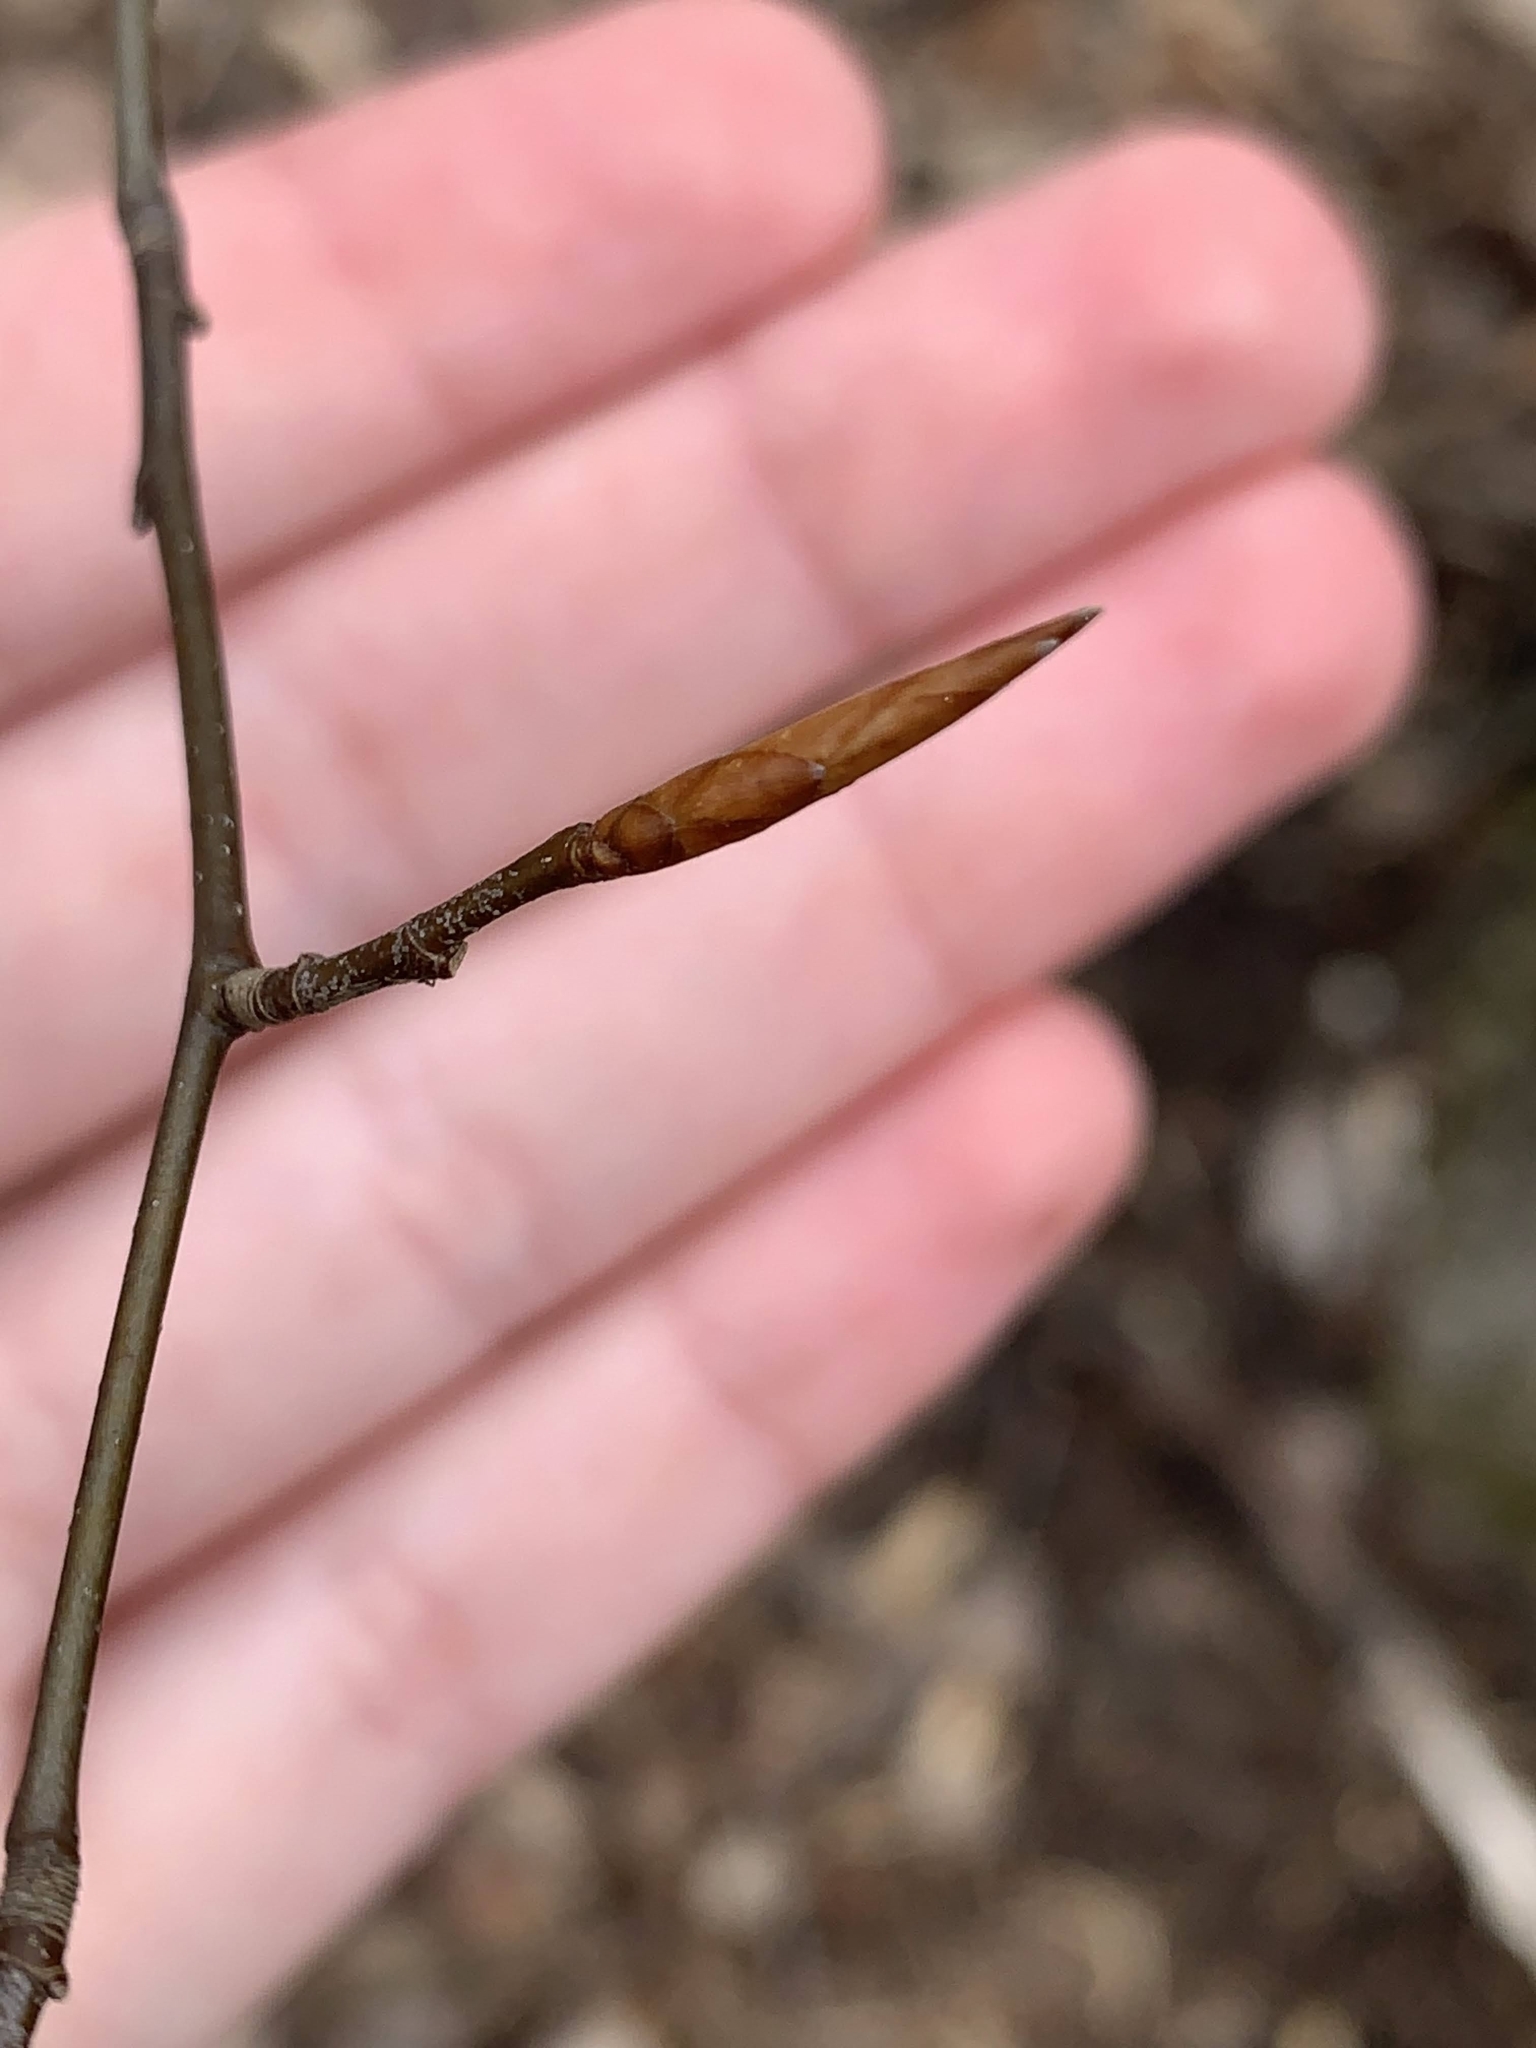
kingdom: Plantae
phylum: Tracheophyta
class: Magnoliopsida
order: Fagales
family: Fagaceae
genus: Fagus
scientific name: Fagus grandifolia
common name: American beech
